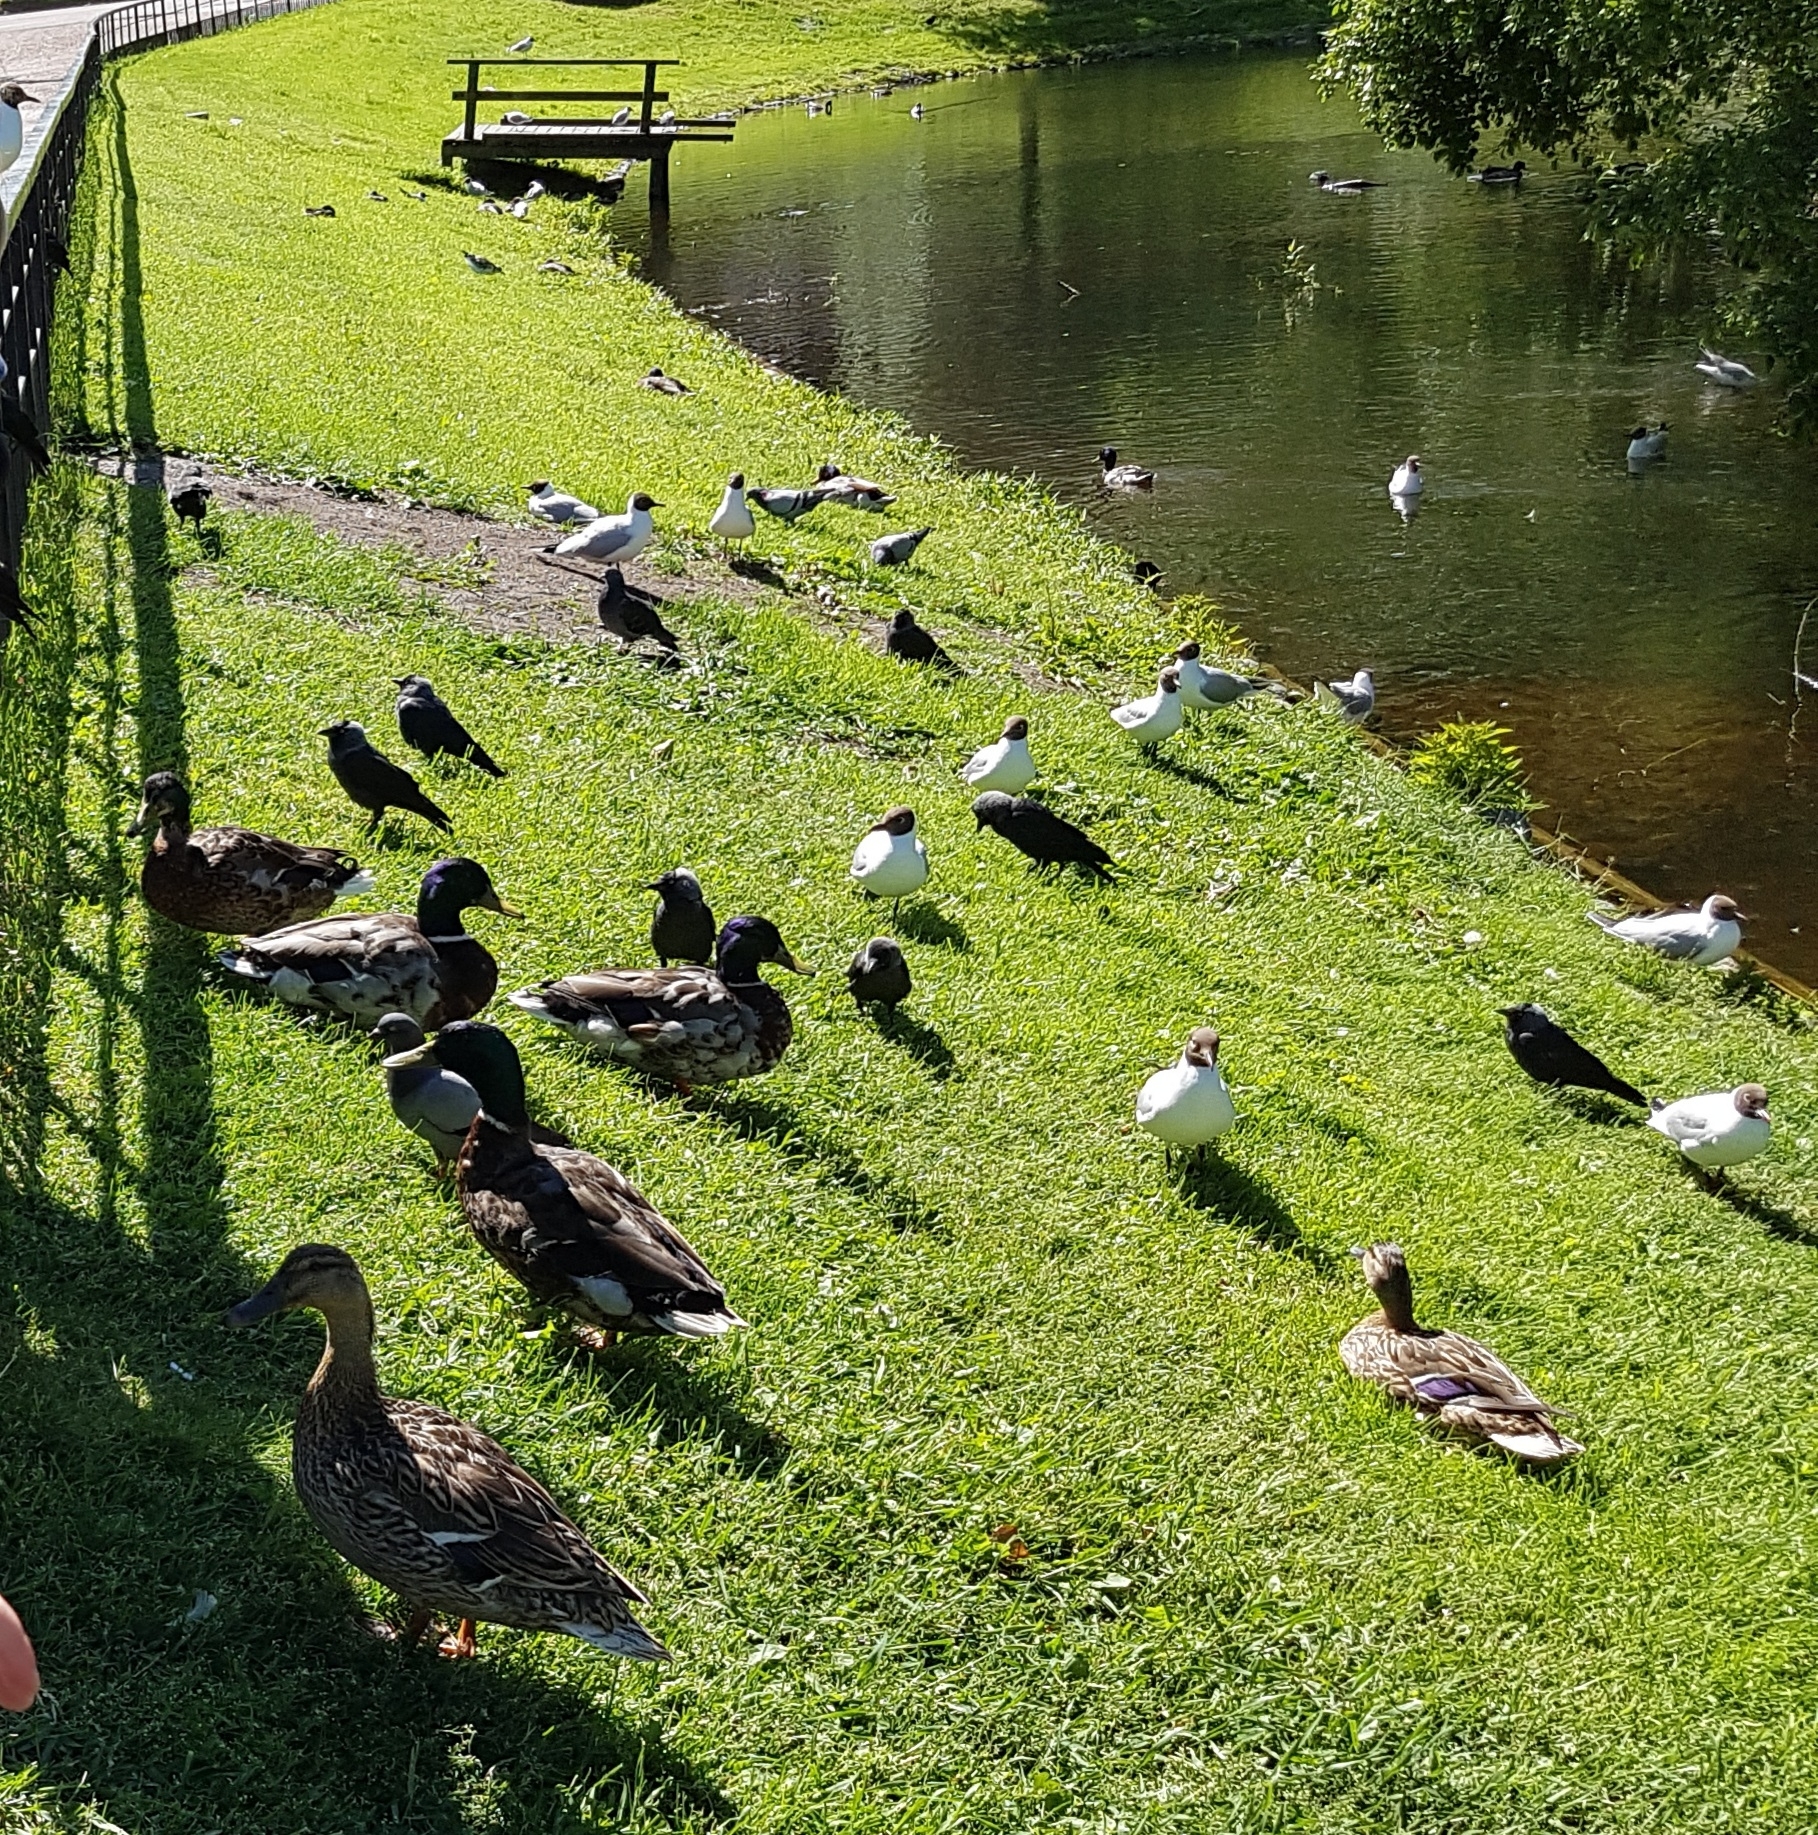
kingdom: Animalia
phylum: Chordata
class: Aves
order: Anseriformes
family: Anatidae
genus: Anas
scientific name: Anas platyrhynchos
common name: Mallard
